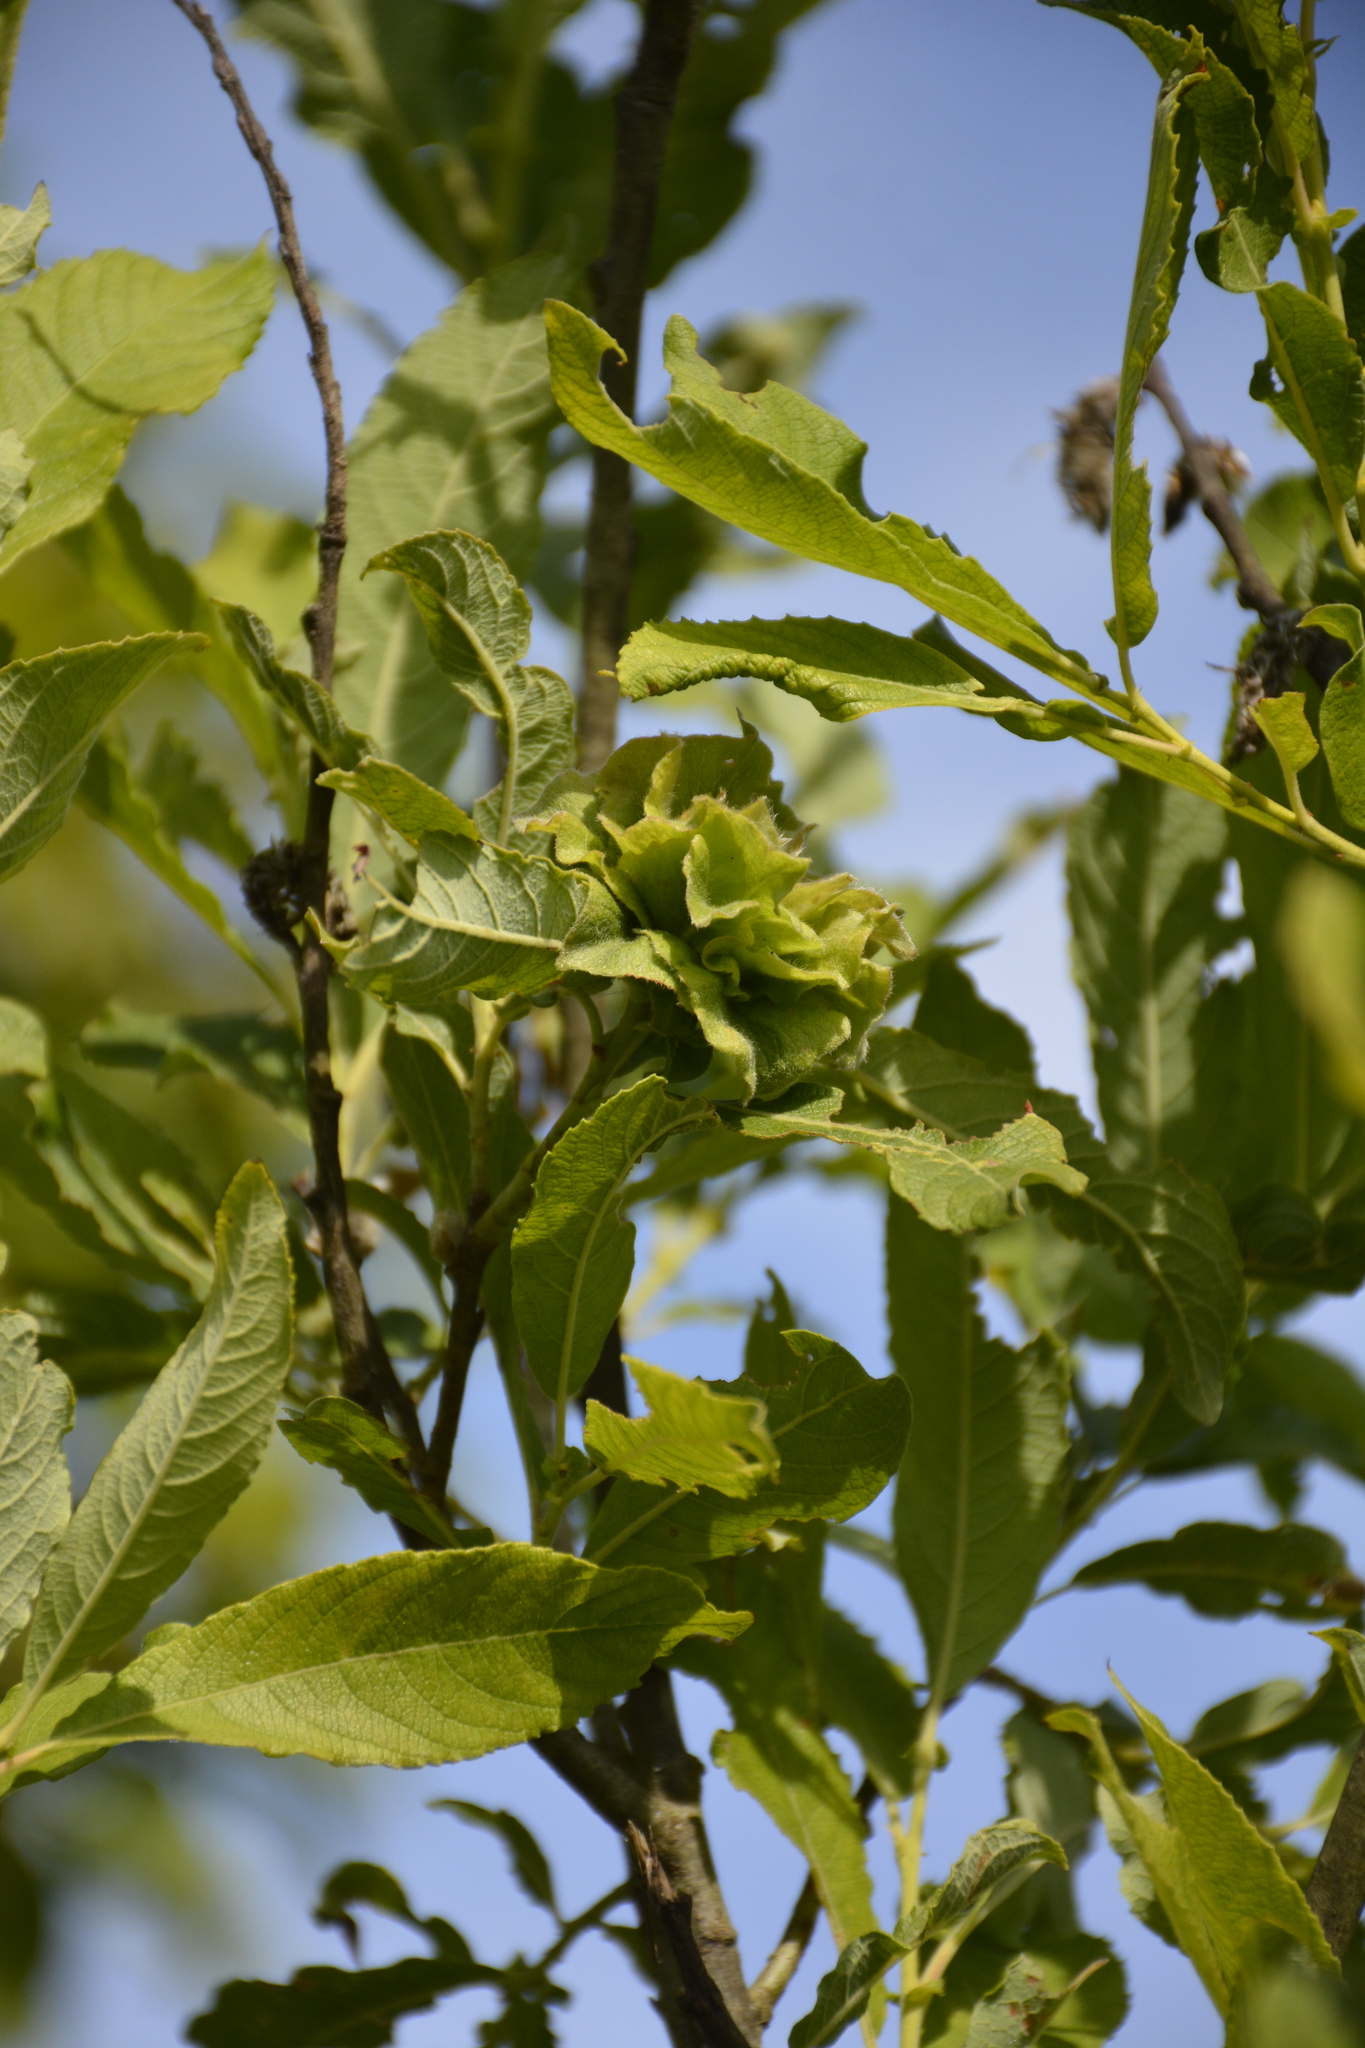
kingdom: Plantae
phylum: Tracheophyta
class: Magnoliopsida
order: Malpighiales
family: Salicaceae
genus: Salix
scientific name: Salix cinerea
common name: Common sallow
